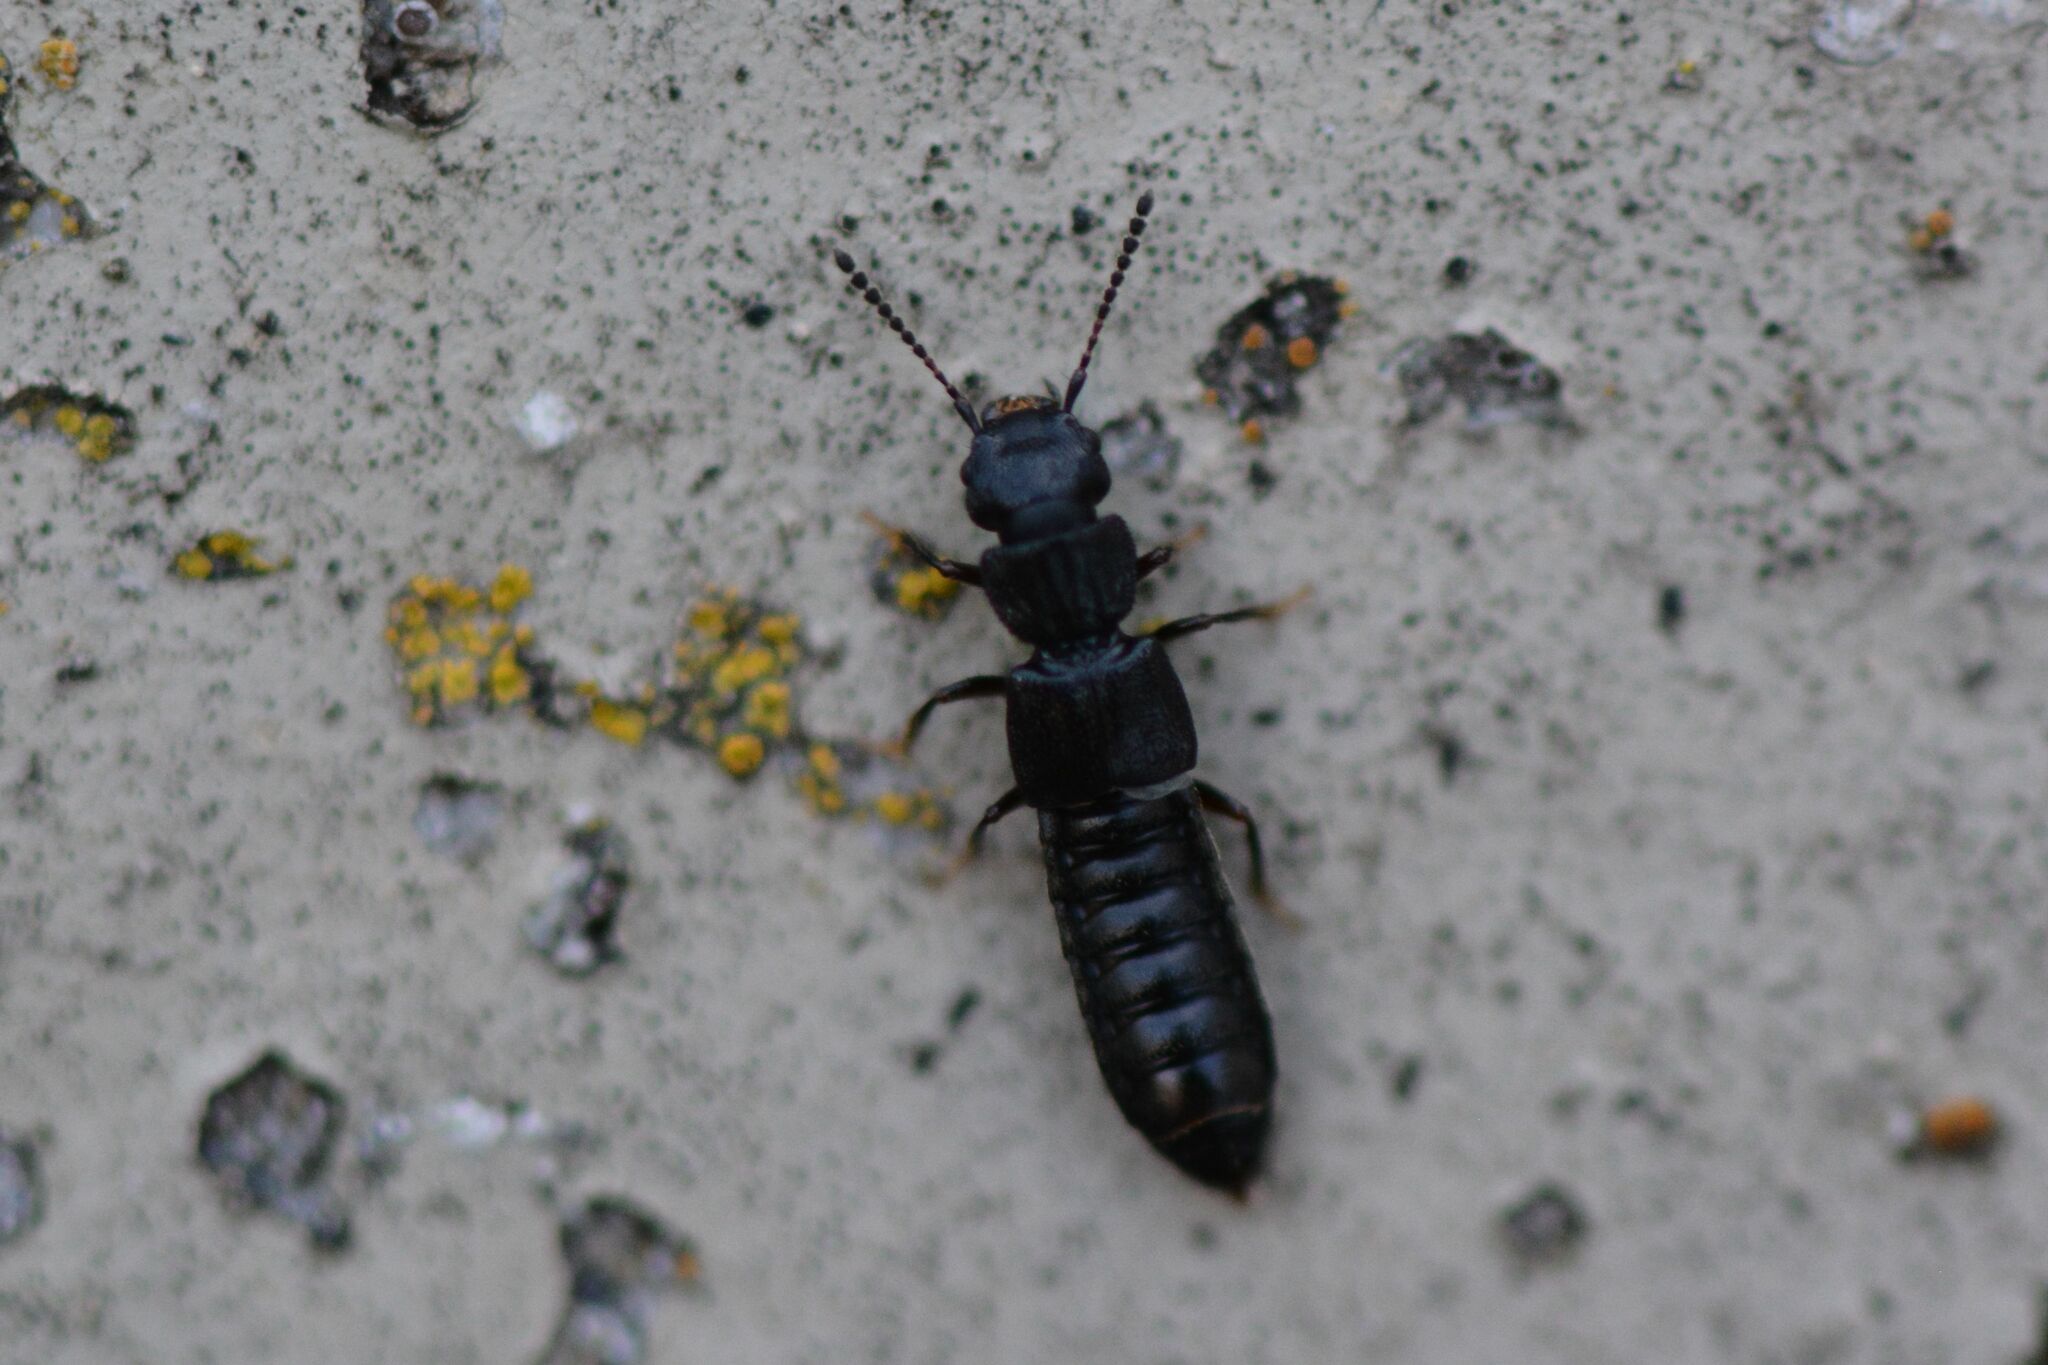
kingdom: Animalia
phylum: Arthropoda
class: Insecta
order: Coleoptera
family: Staphylinidae
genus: Anotylus
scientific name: Anotylus rugosus
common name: Rove beetle
